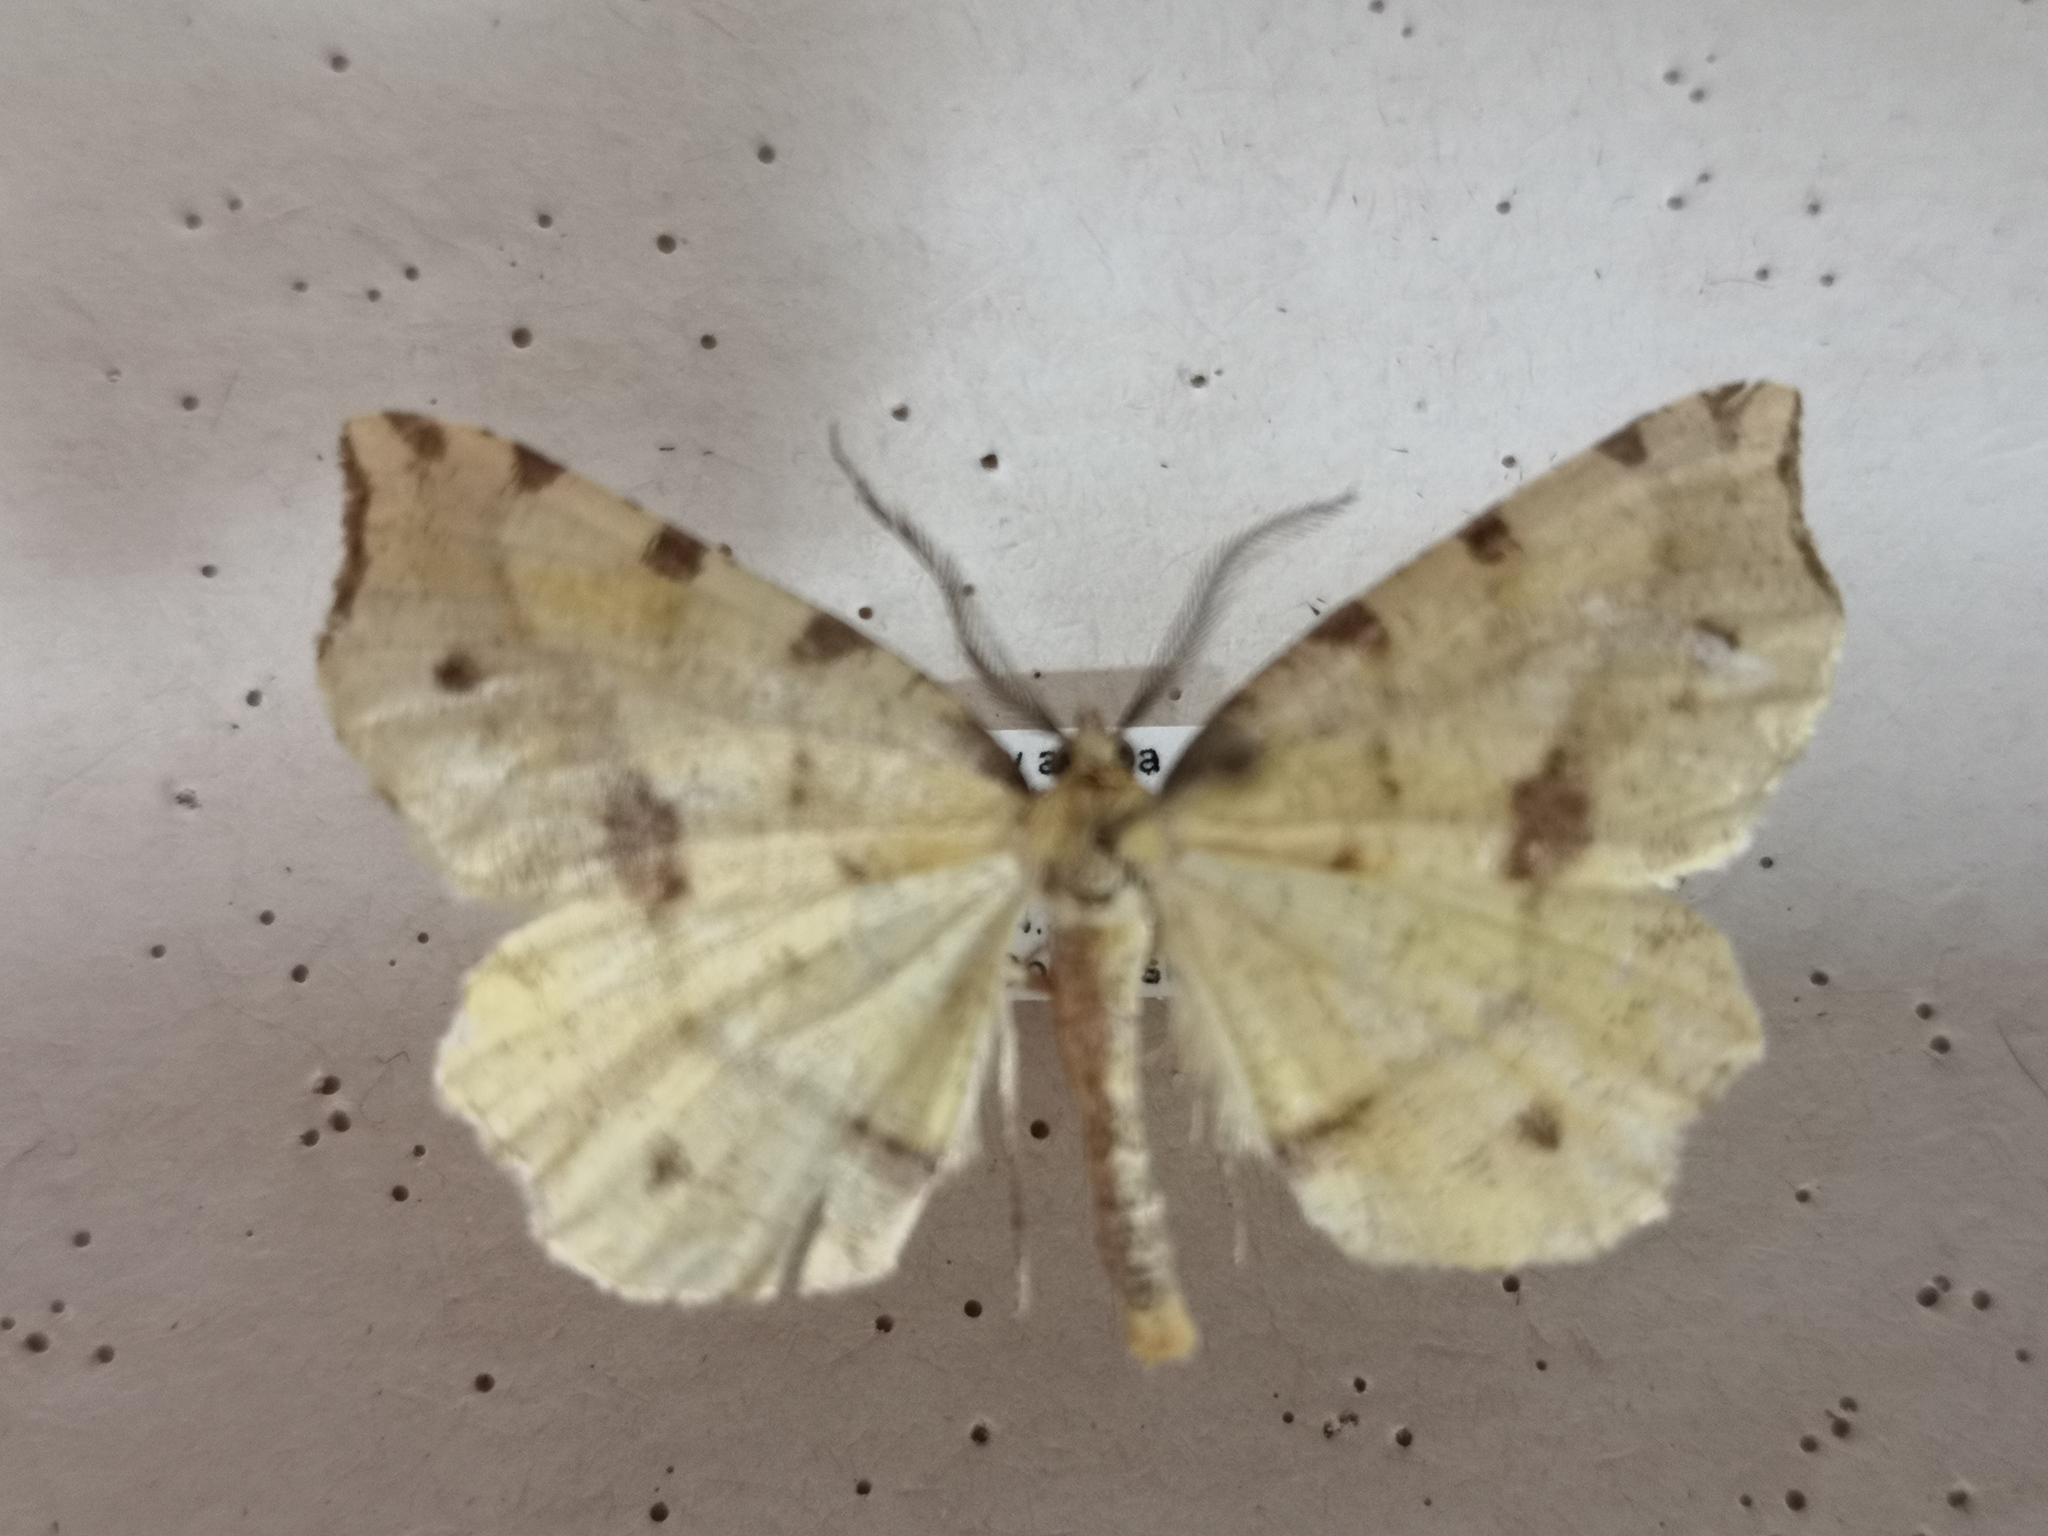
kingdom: Animalia
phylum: Arthropoda
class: Insecta
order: Lepidoptera
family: Geometridae
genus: Therapis
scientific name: Therapis flavicaria
